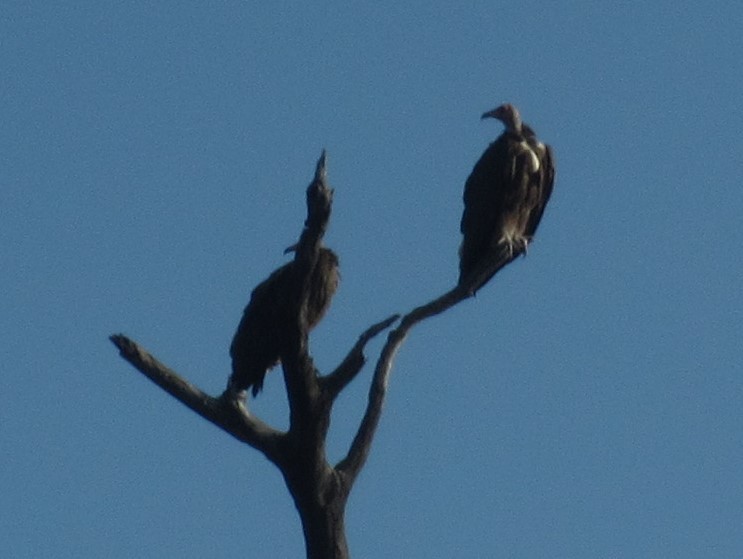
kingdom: Animalia
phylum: Chordata
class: Aves
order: Accipitriformes
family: Accipitridae
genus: Necrosyrtes
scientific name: Necrosyrtes monachus
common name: Hooded vulture
